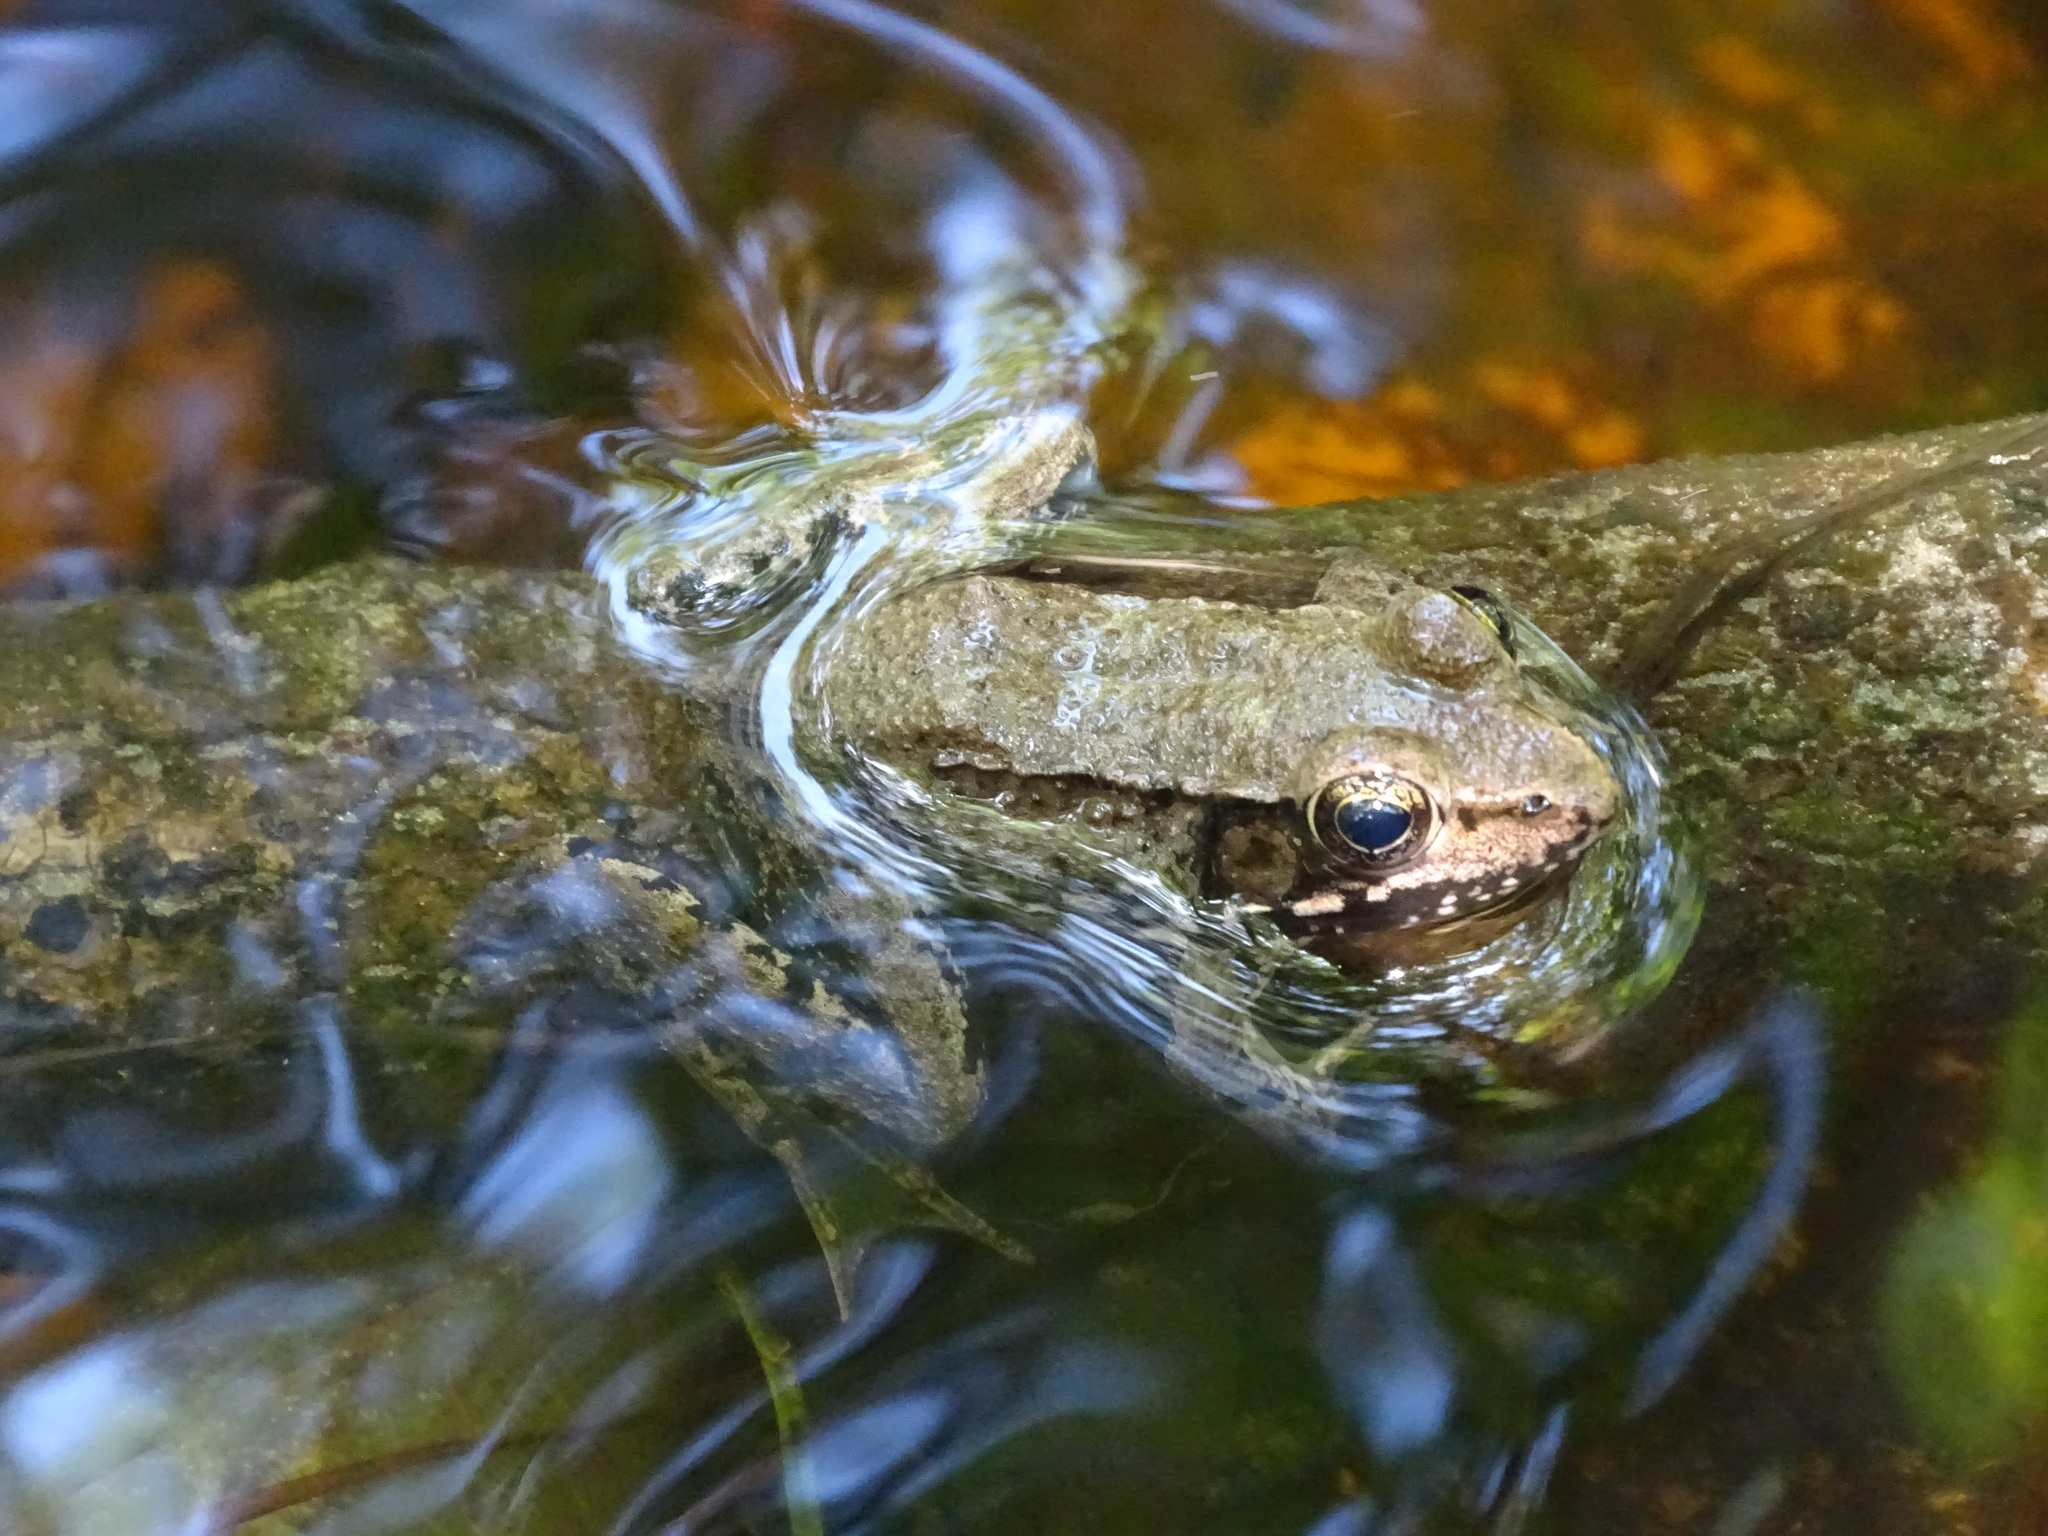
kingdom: Animalia
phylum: Chordata
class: Amphibia
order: Anura
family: Ranidae
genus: Lithobates
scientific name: Lithobates clamitans
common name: Green frog
